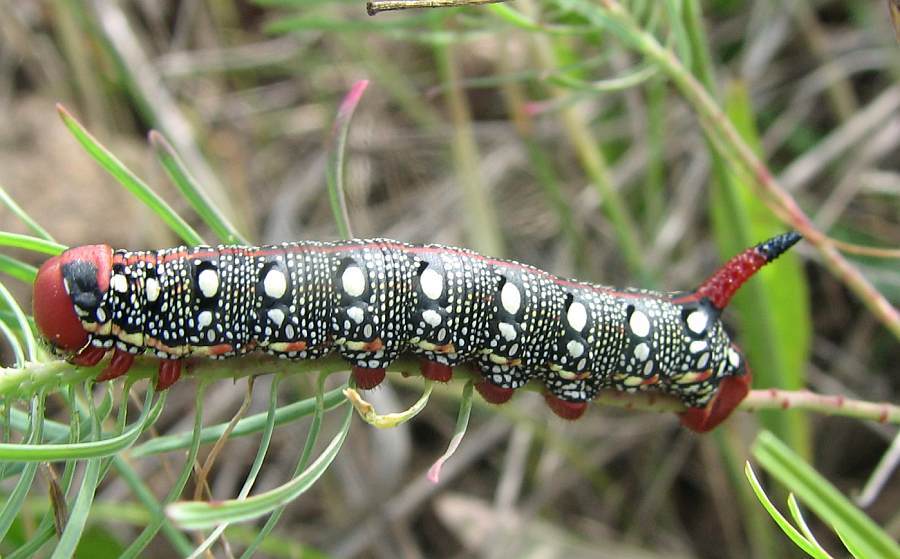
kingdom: Animalia
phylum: Arthropoda
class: Insecta
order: Lepidoptera
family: Sphingidae
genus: Hyles
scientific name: Hyles euphorbiae
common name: Spurge hawk-moth
